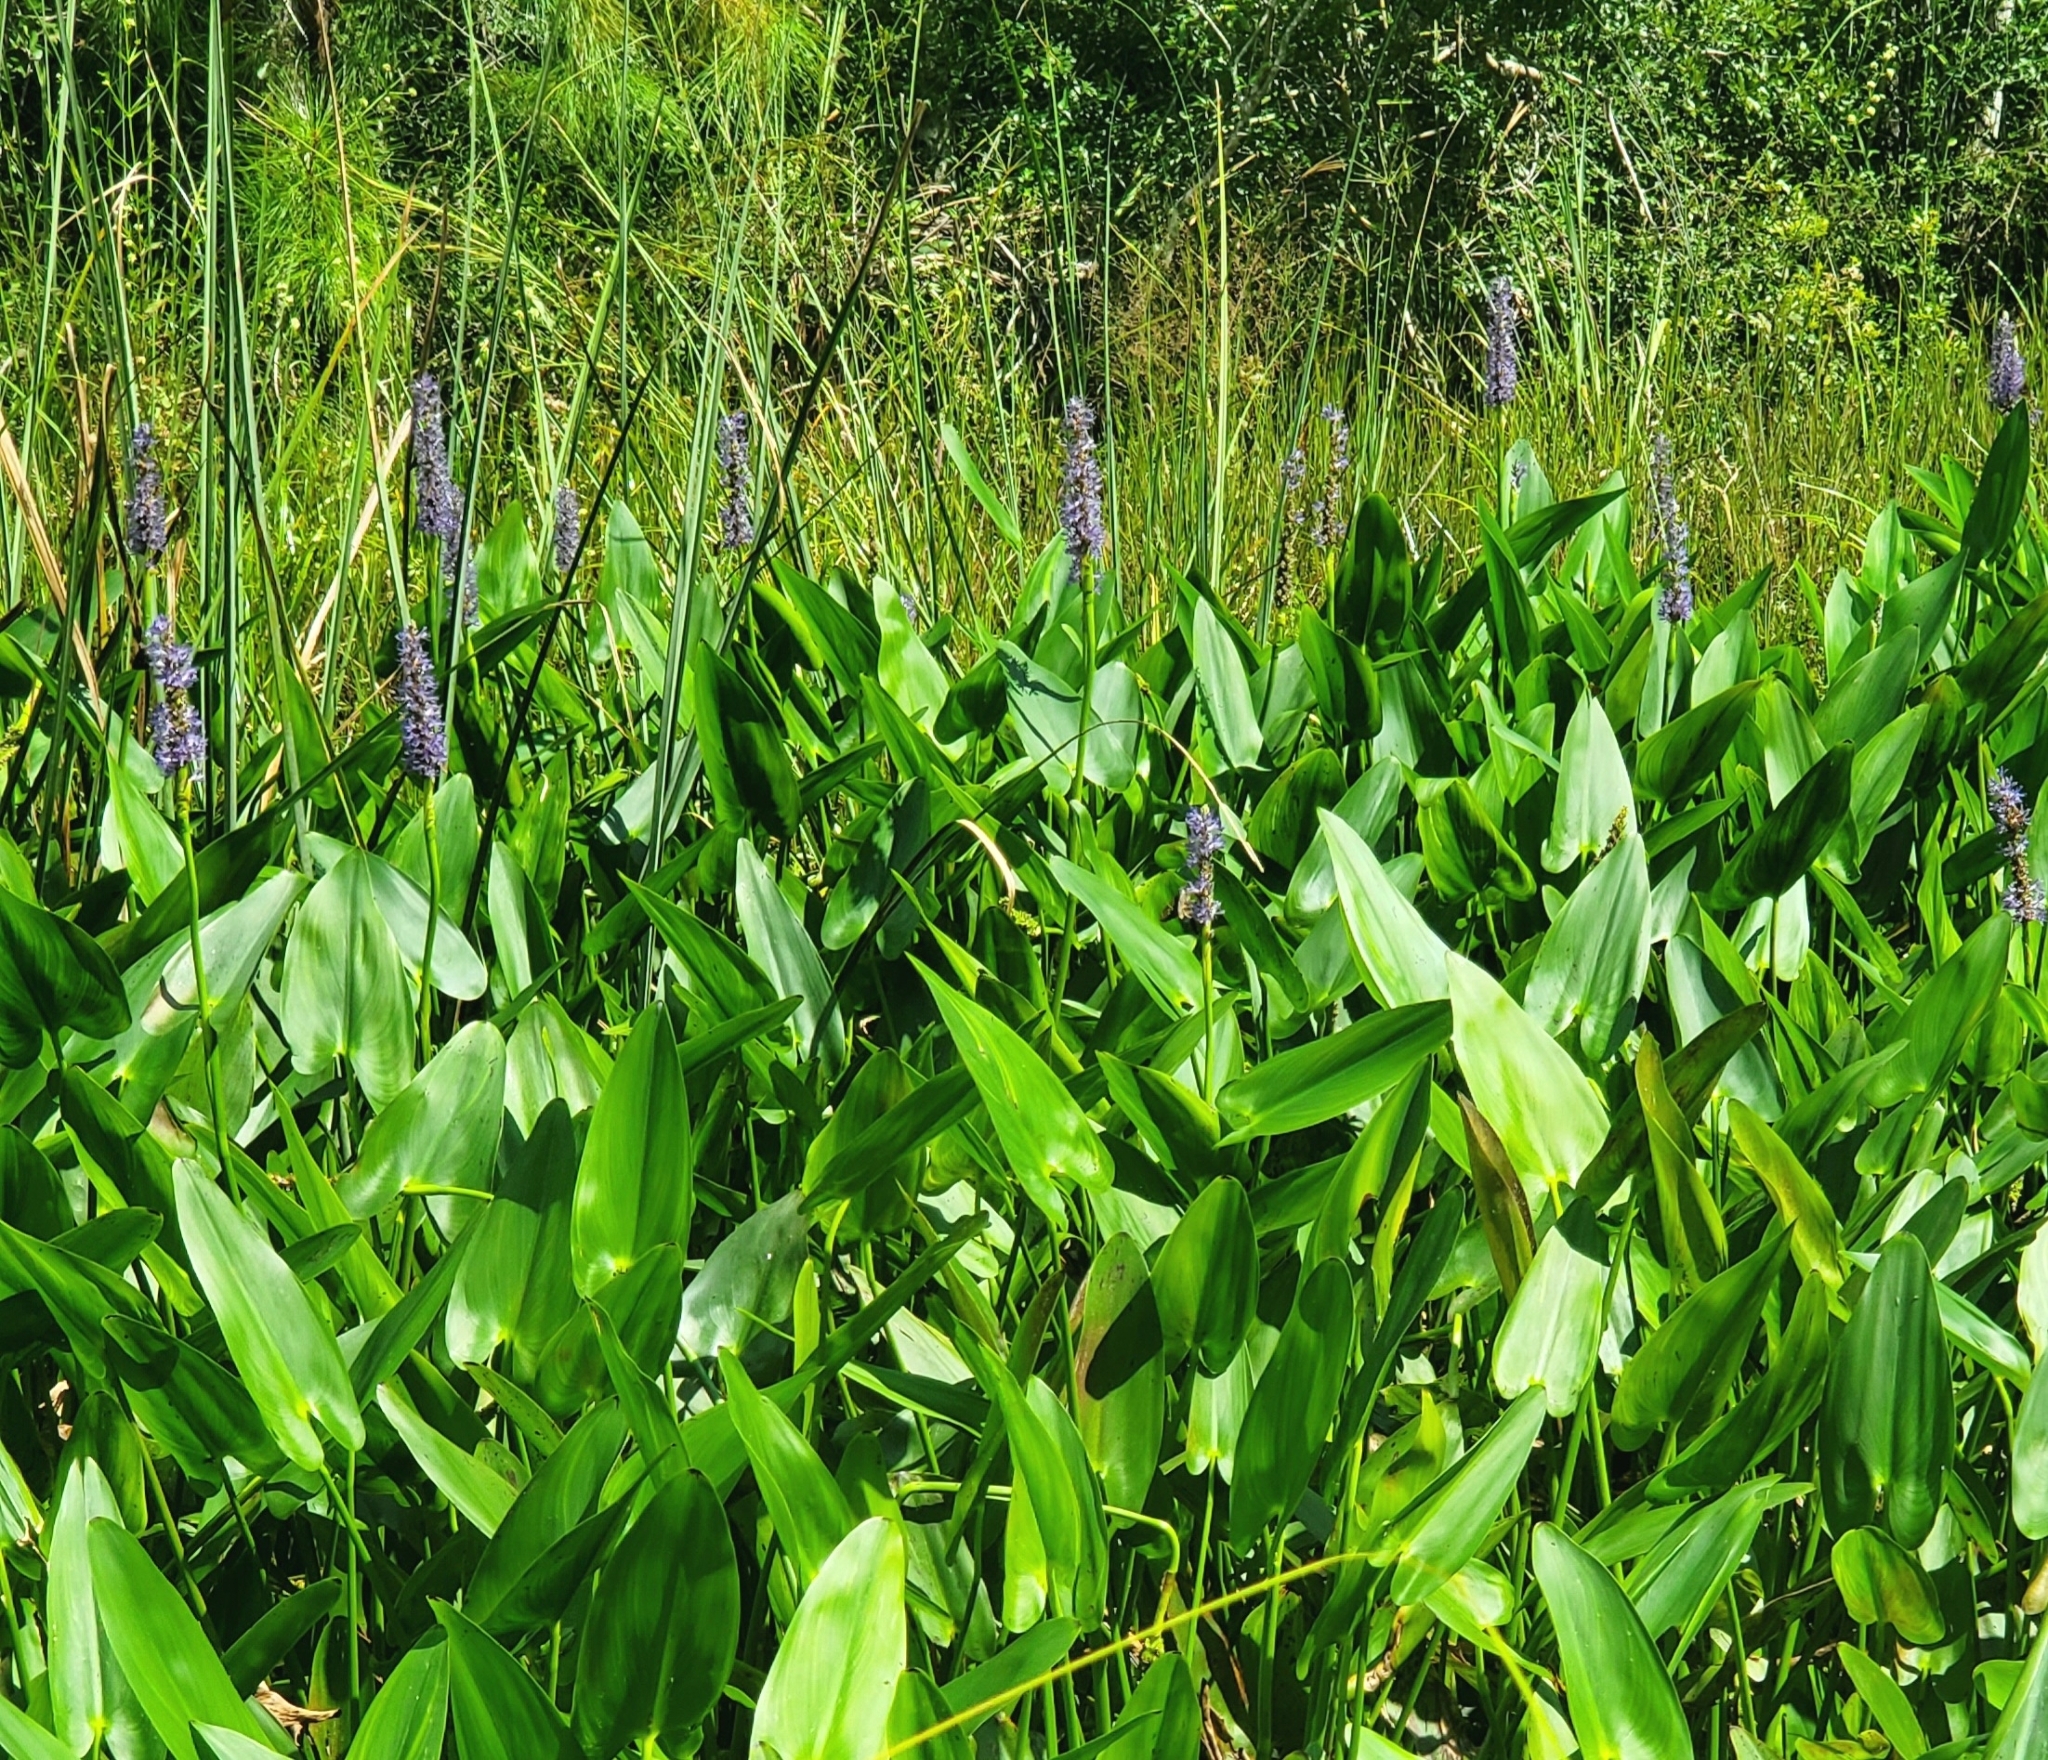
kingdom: Plantae
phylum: Tracheophyta
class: Liliopsida
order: Commelinales
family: Pontederiaceae
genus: Pontederia
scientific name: Pontederia cordata
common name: Pickerelweed
